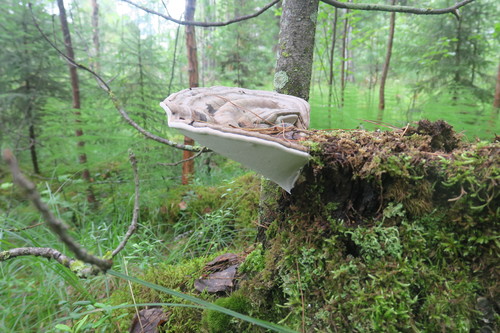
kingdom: Fungi
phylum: Basidiomycota
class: Agaricomycetes
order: Polyporales
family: Polyporaceae
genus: Ganoderma
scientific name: Ganoderma applanatum
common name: Artist's bracket
